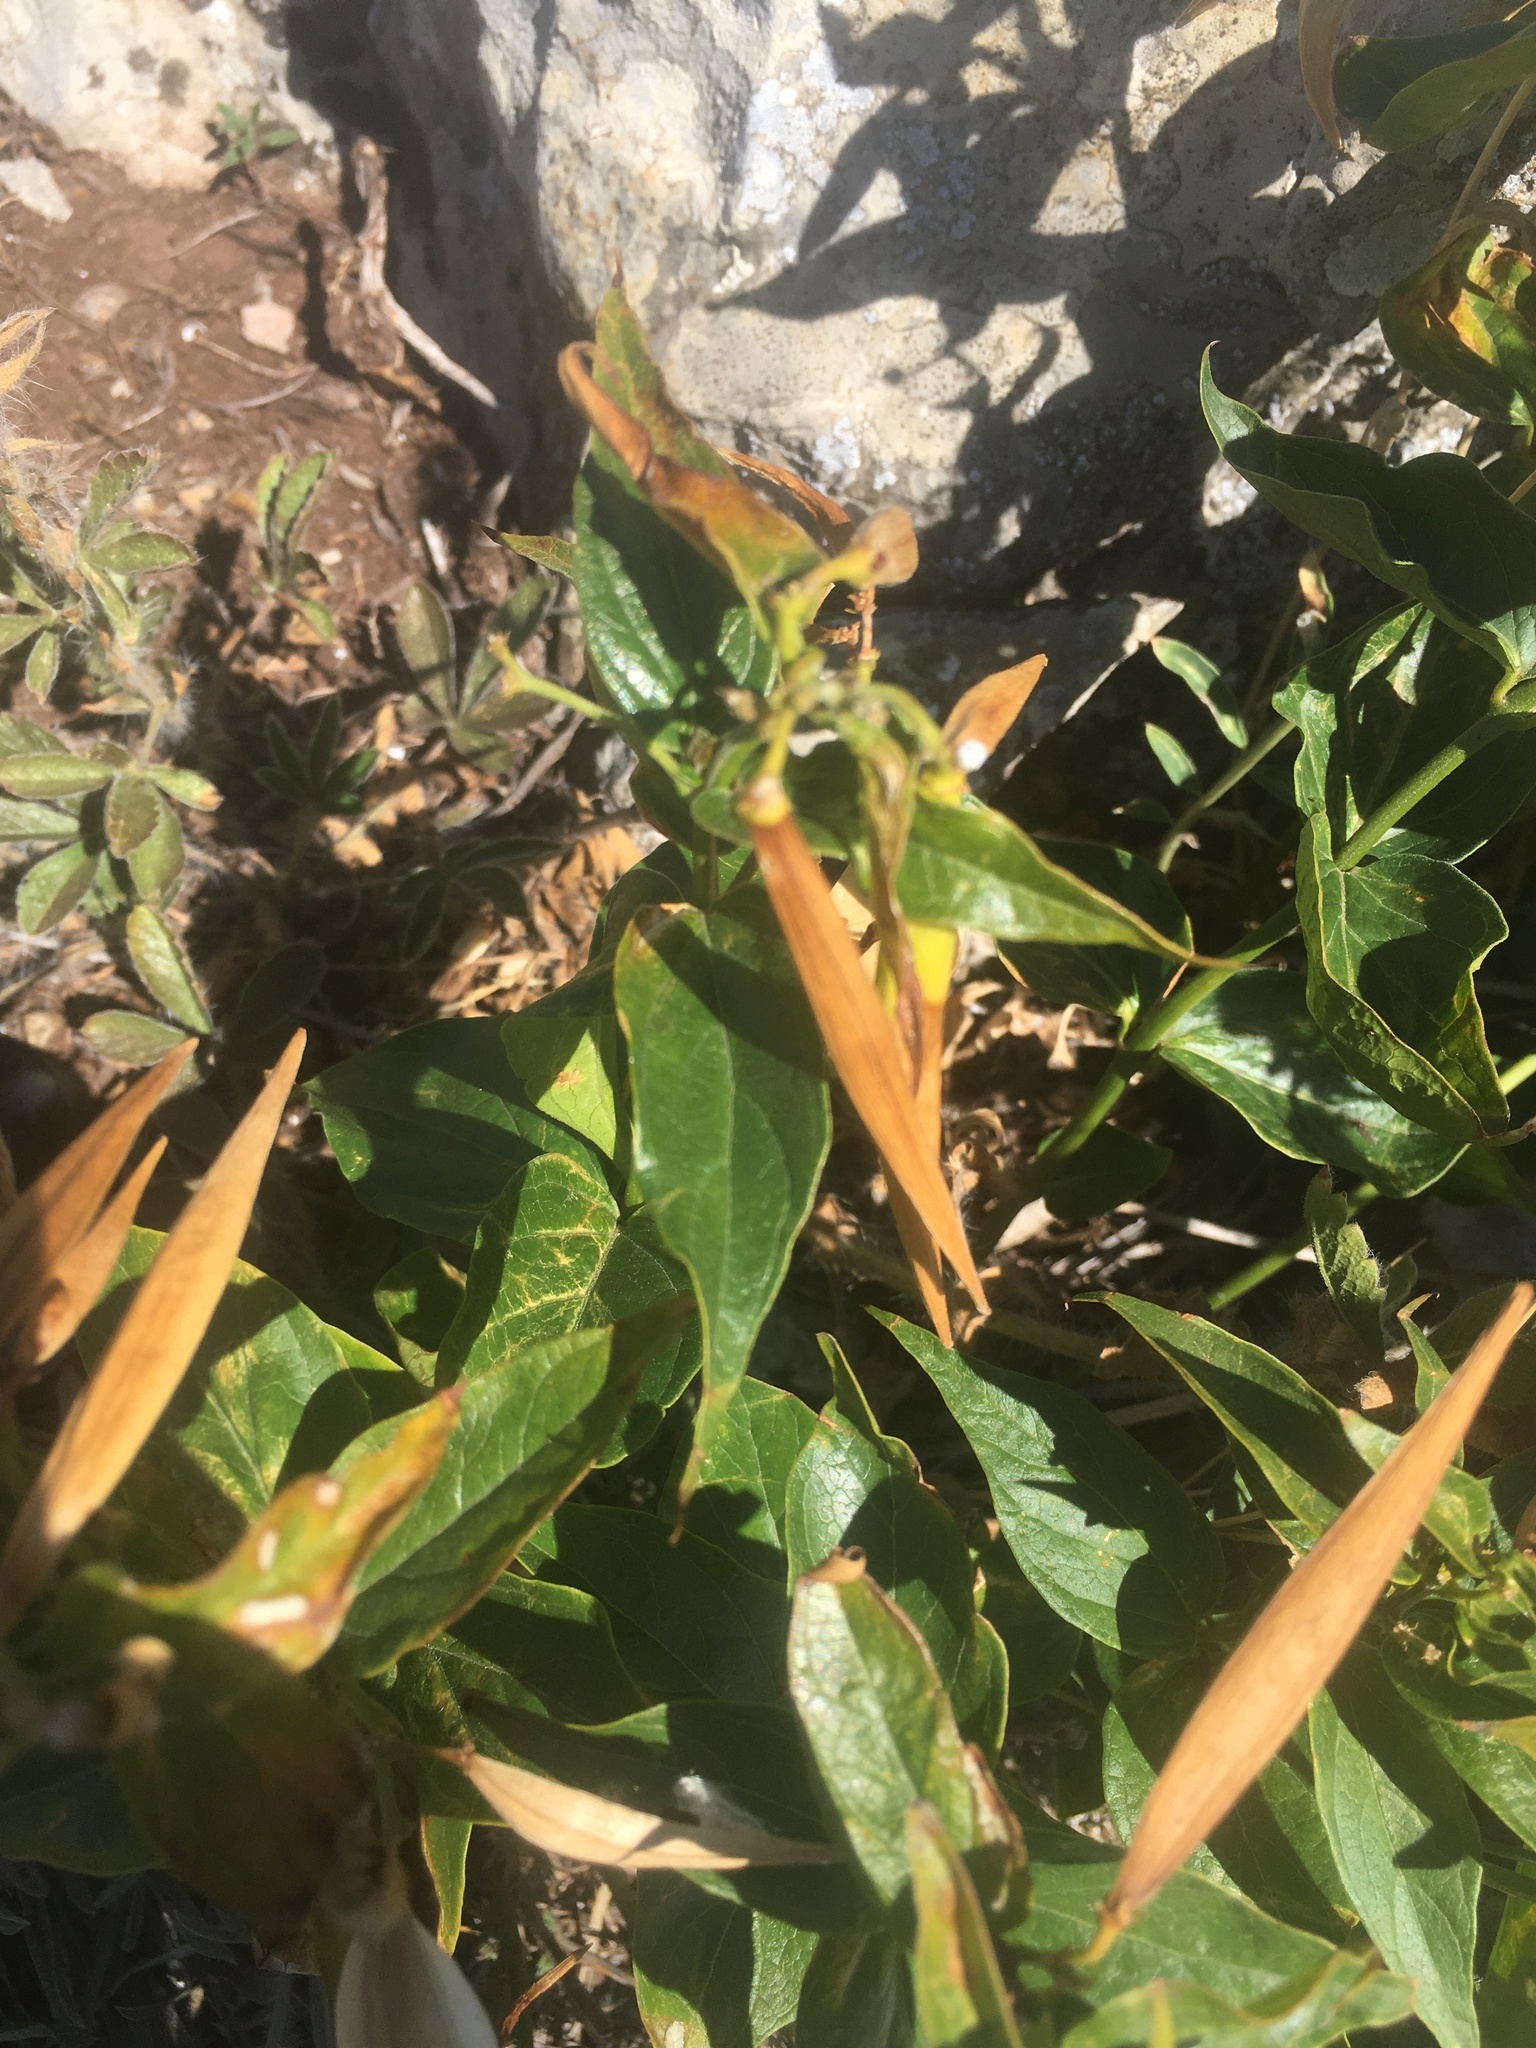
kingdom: Plantae
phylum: Tracheophyta
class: Magnoliopsida
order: Gentianales
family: Apocynaceae
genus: Vincetoxicum
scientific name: Vincetoxicum hirundinaria
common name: White swallowwort
